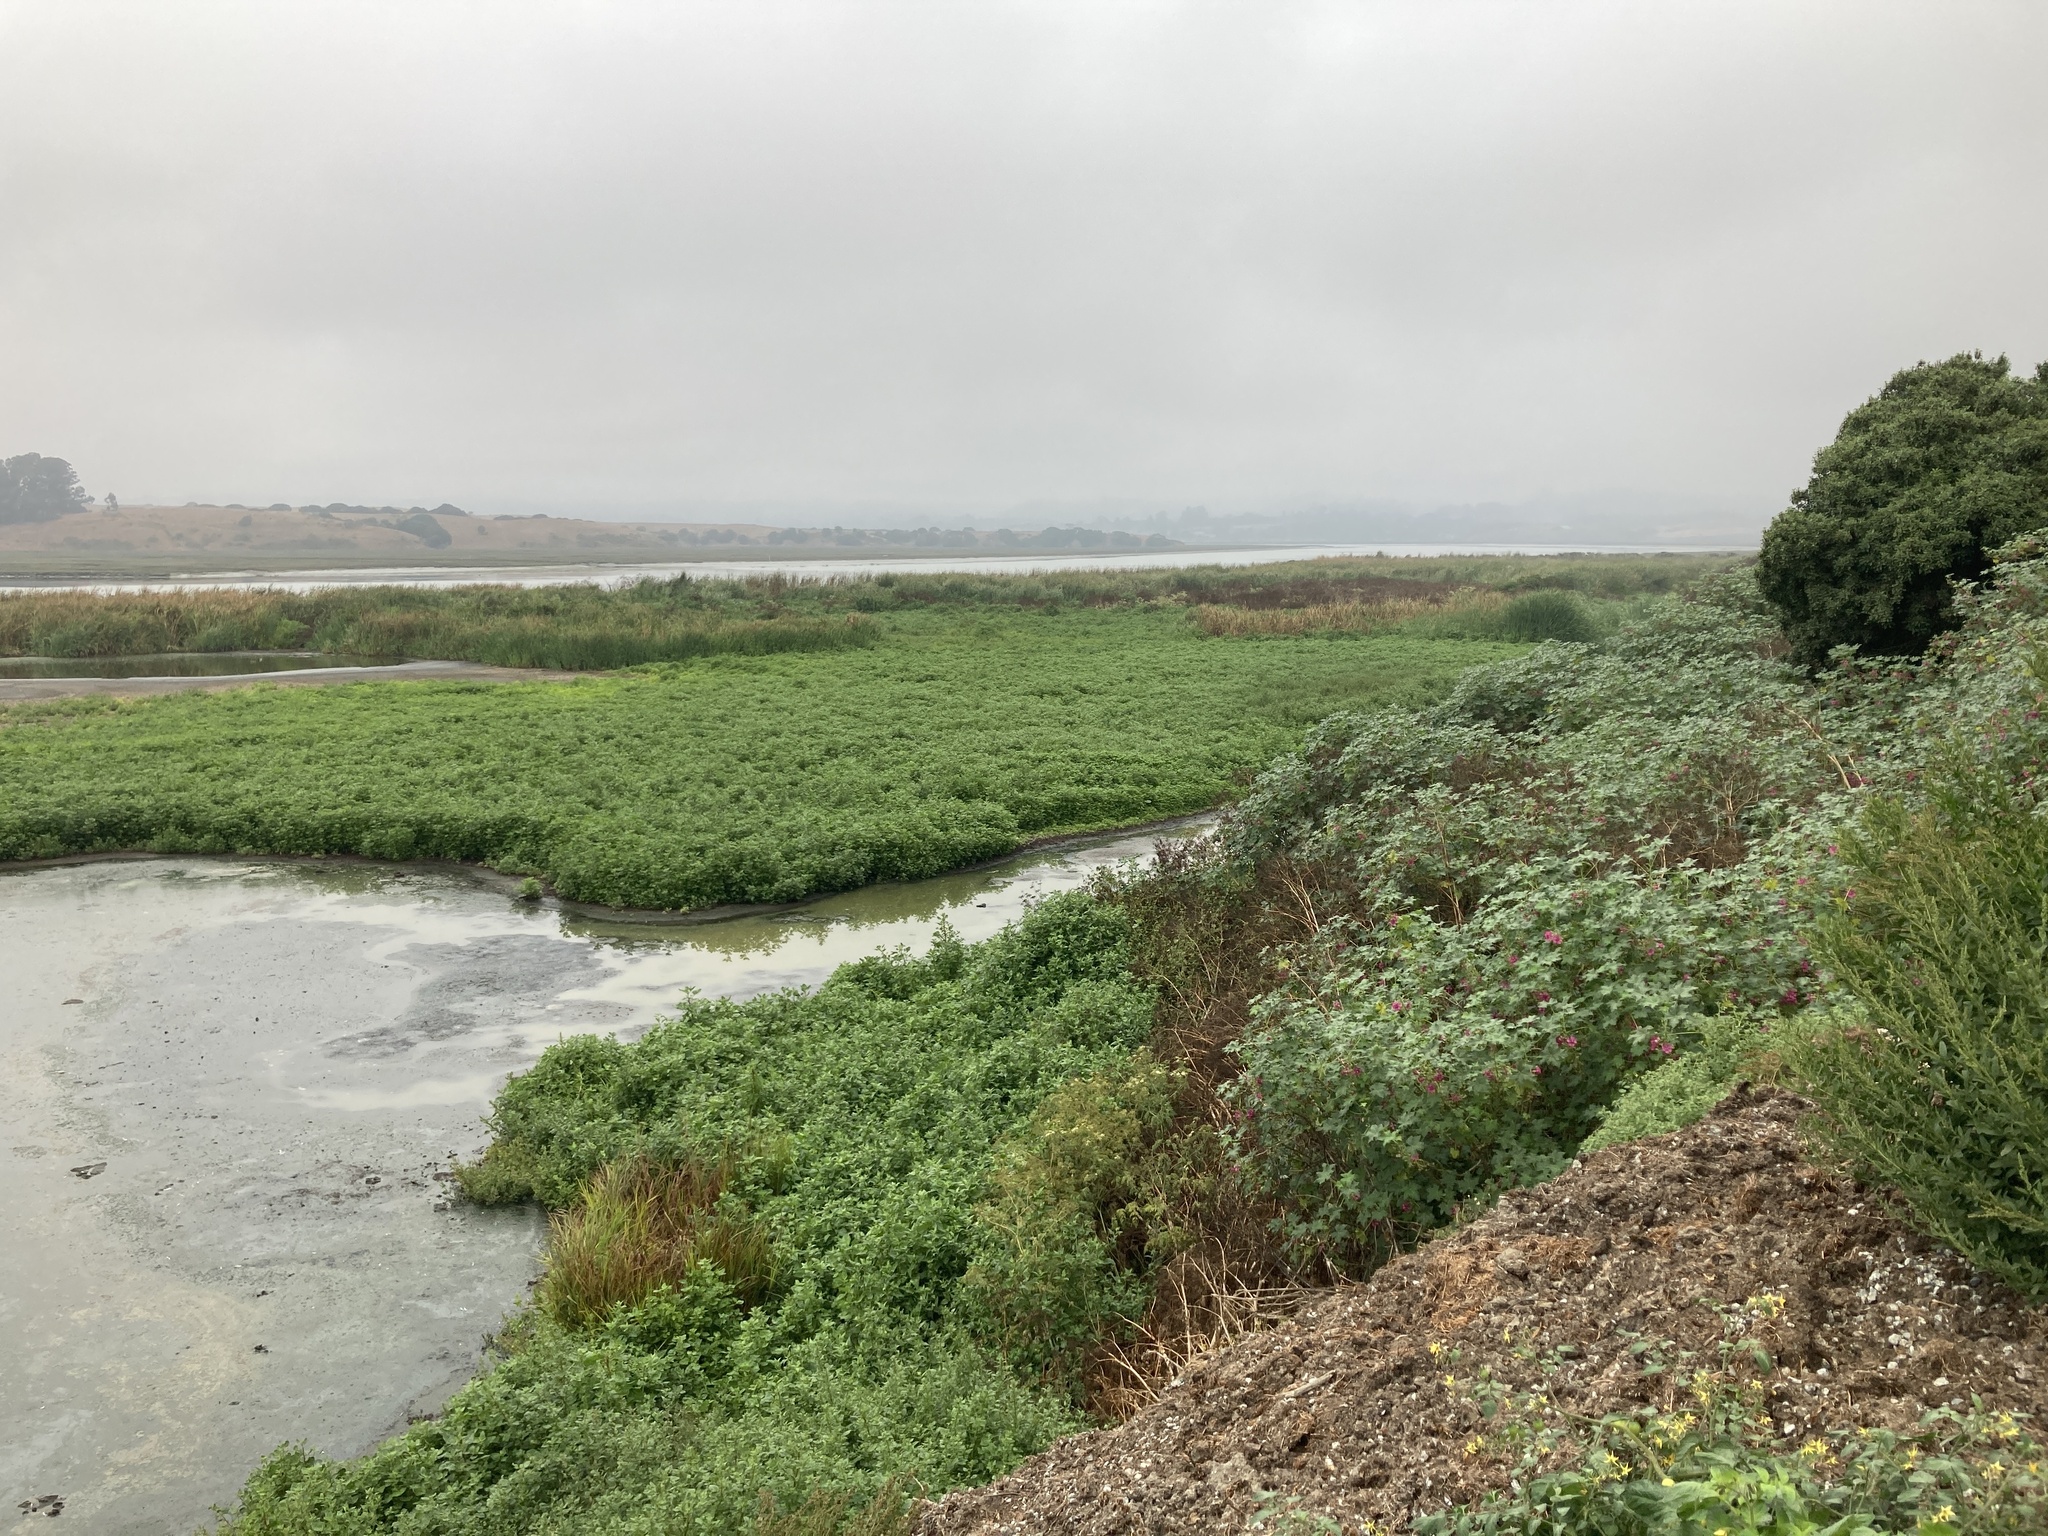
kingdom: Plantae
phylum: Tracheophyta
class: Magnoliopsida
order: Malvales
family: Malvaceae
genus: Malva
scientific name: Malva assurgentiflora
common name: Island mallow
